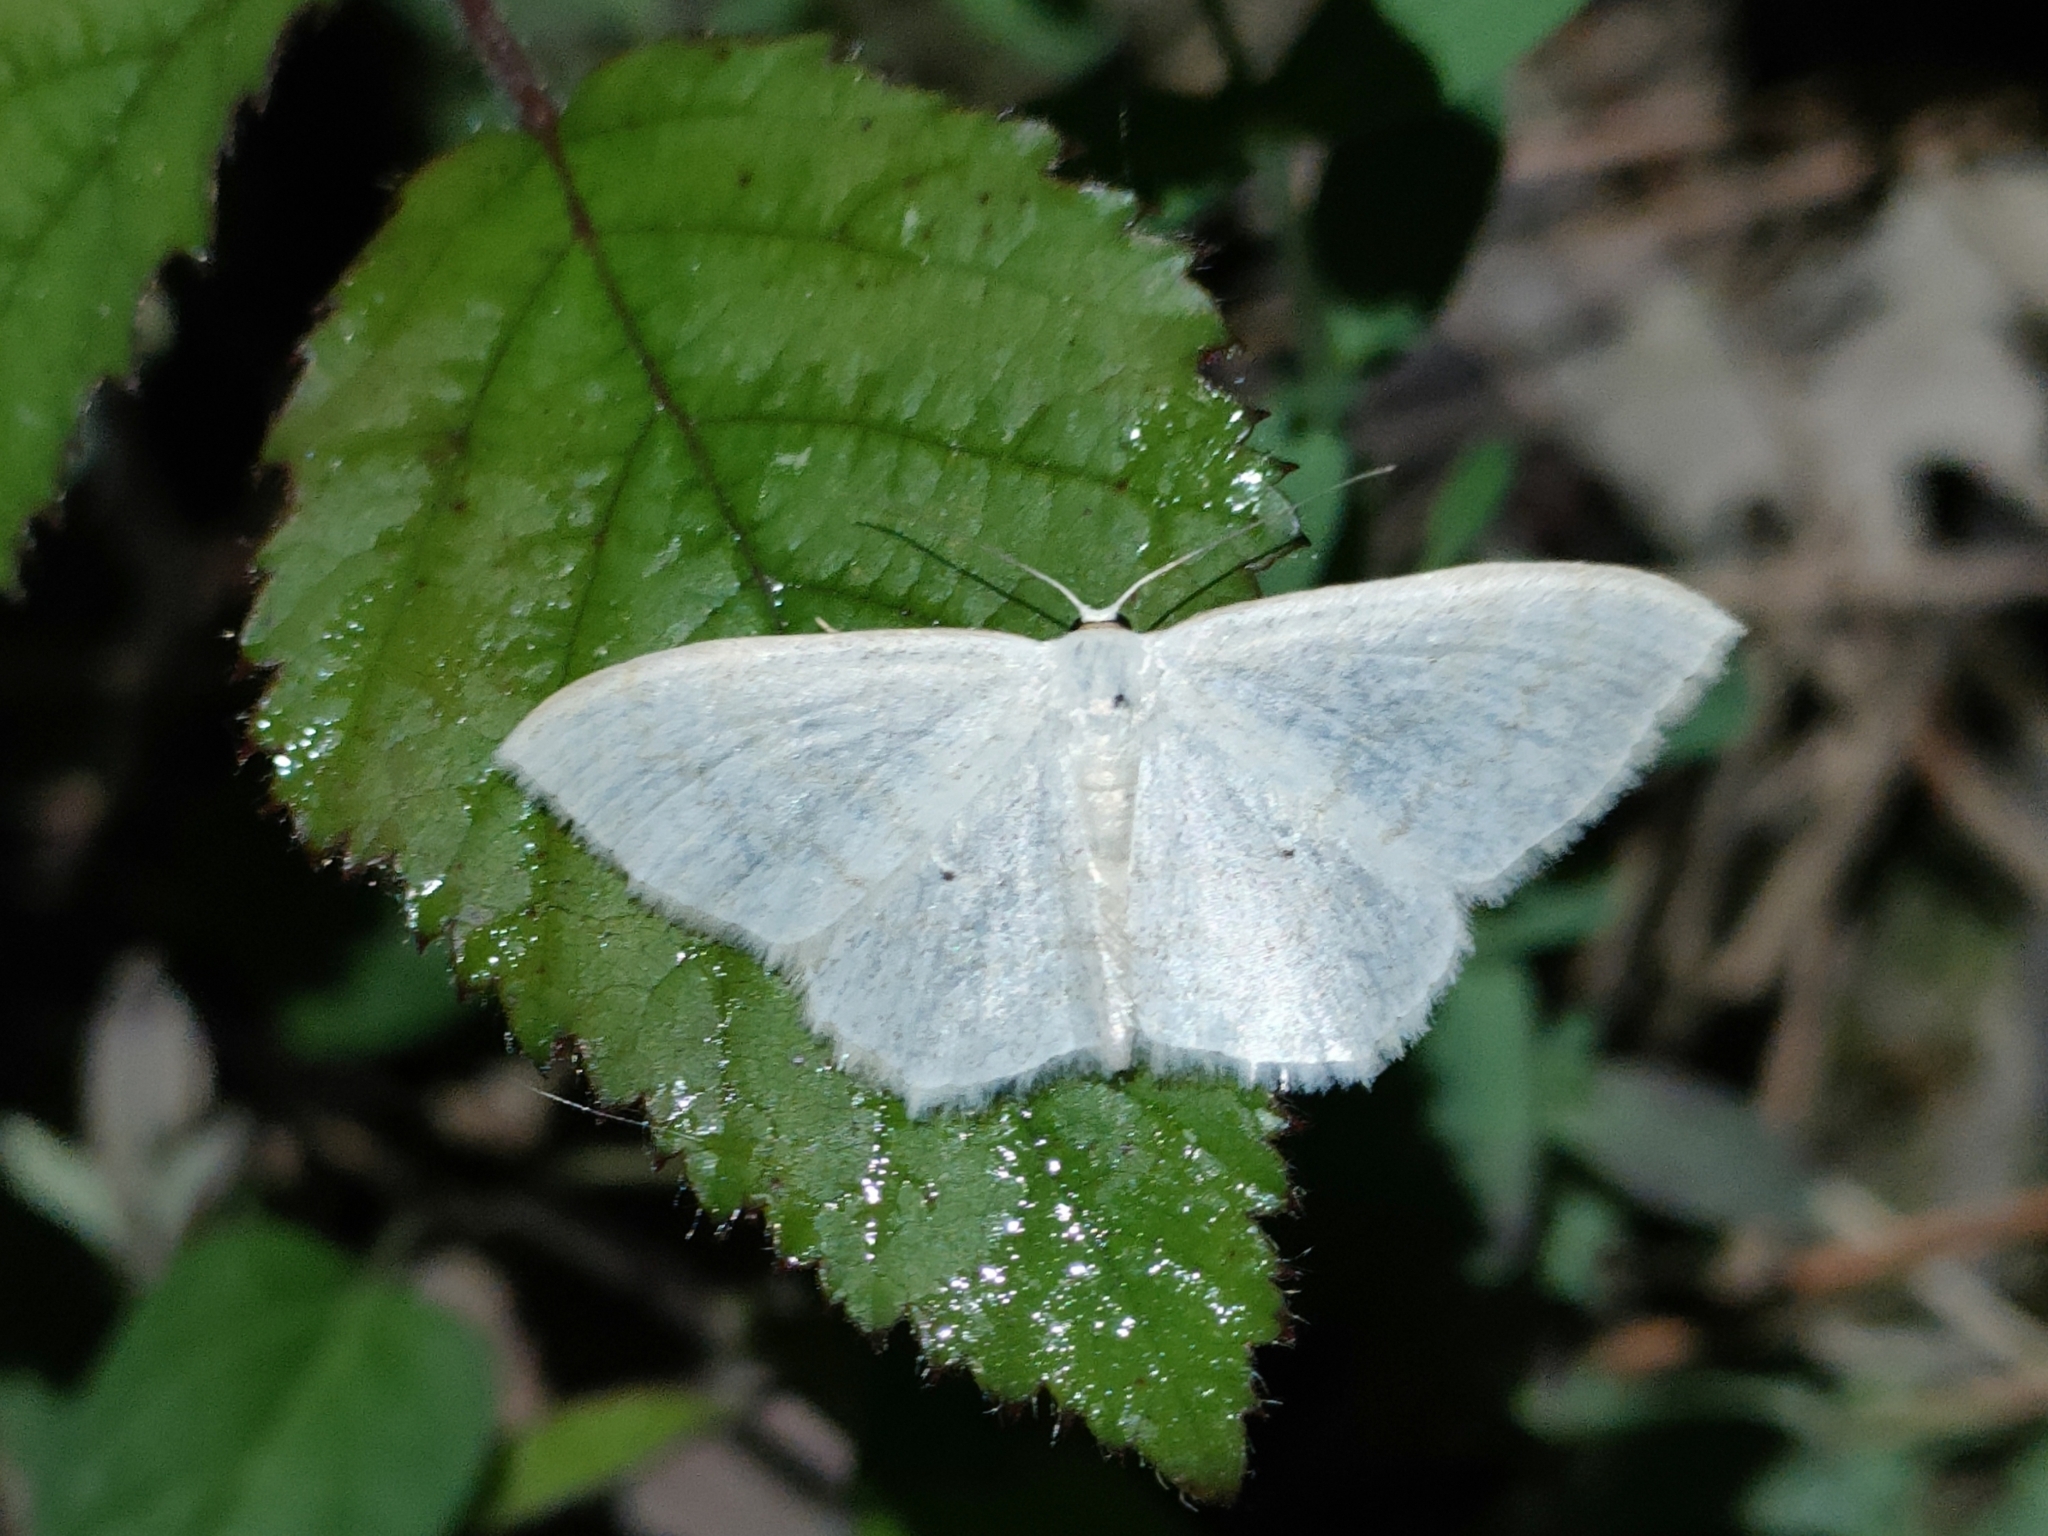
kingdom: Animalia
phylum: Arthropoda
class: Insecta
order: Lepidoptera
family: Geometridae
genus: Scopula
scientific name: Scopula floslactata
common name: Cream wave
